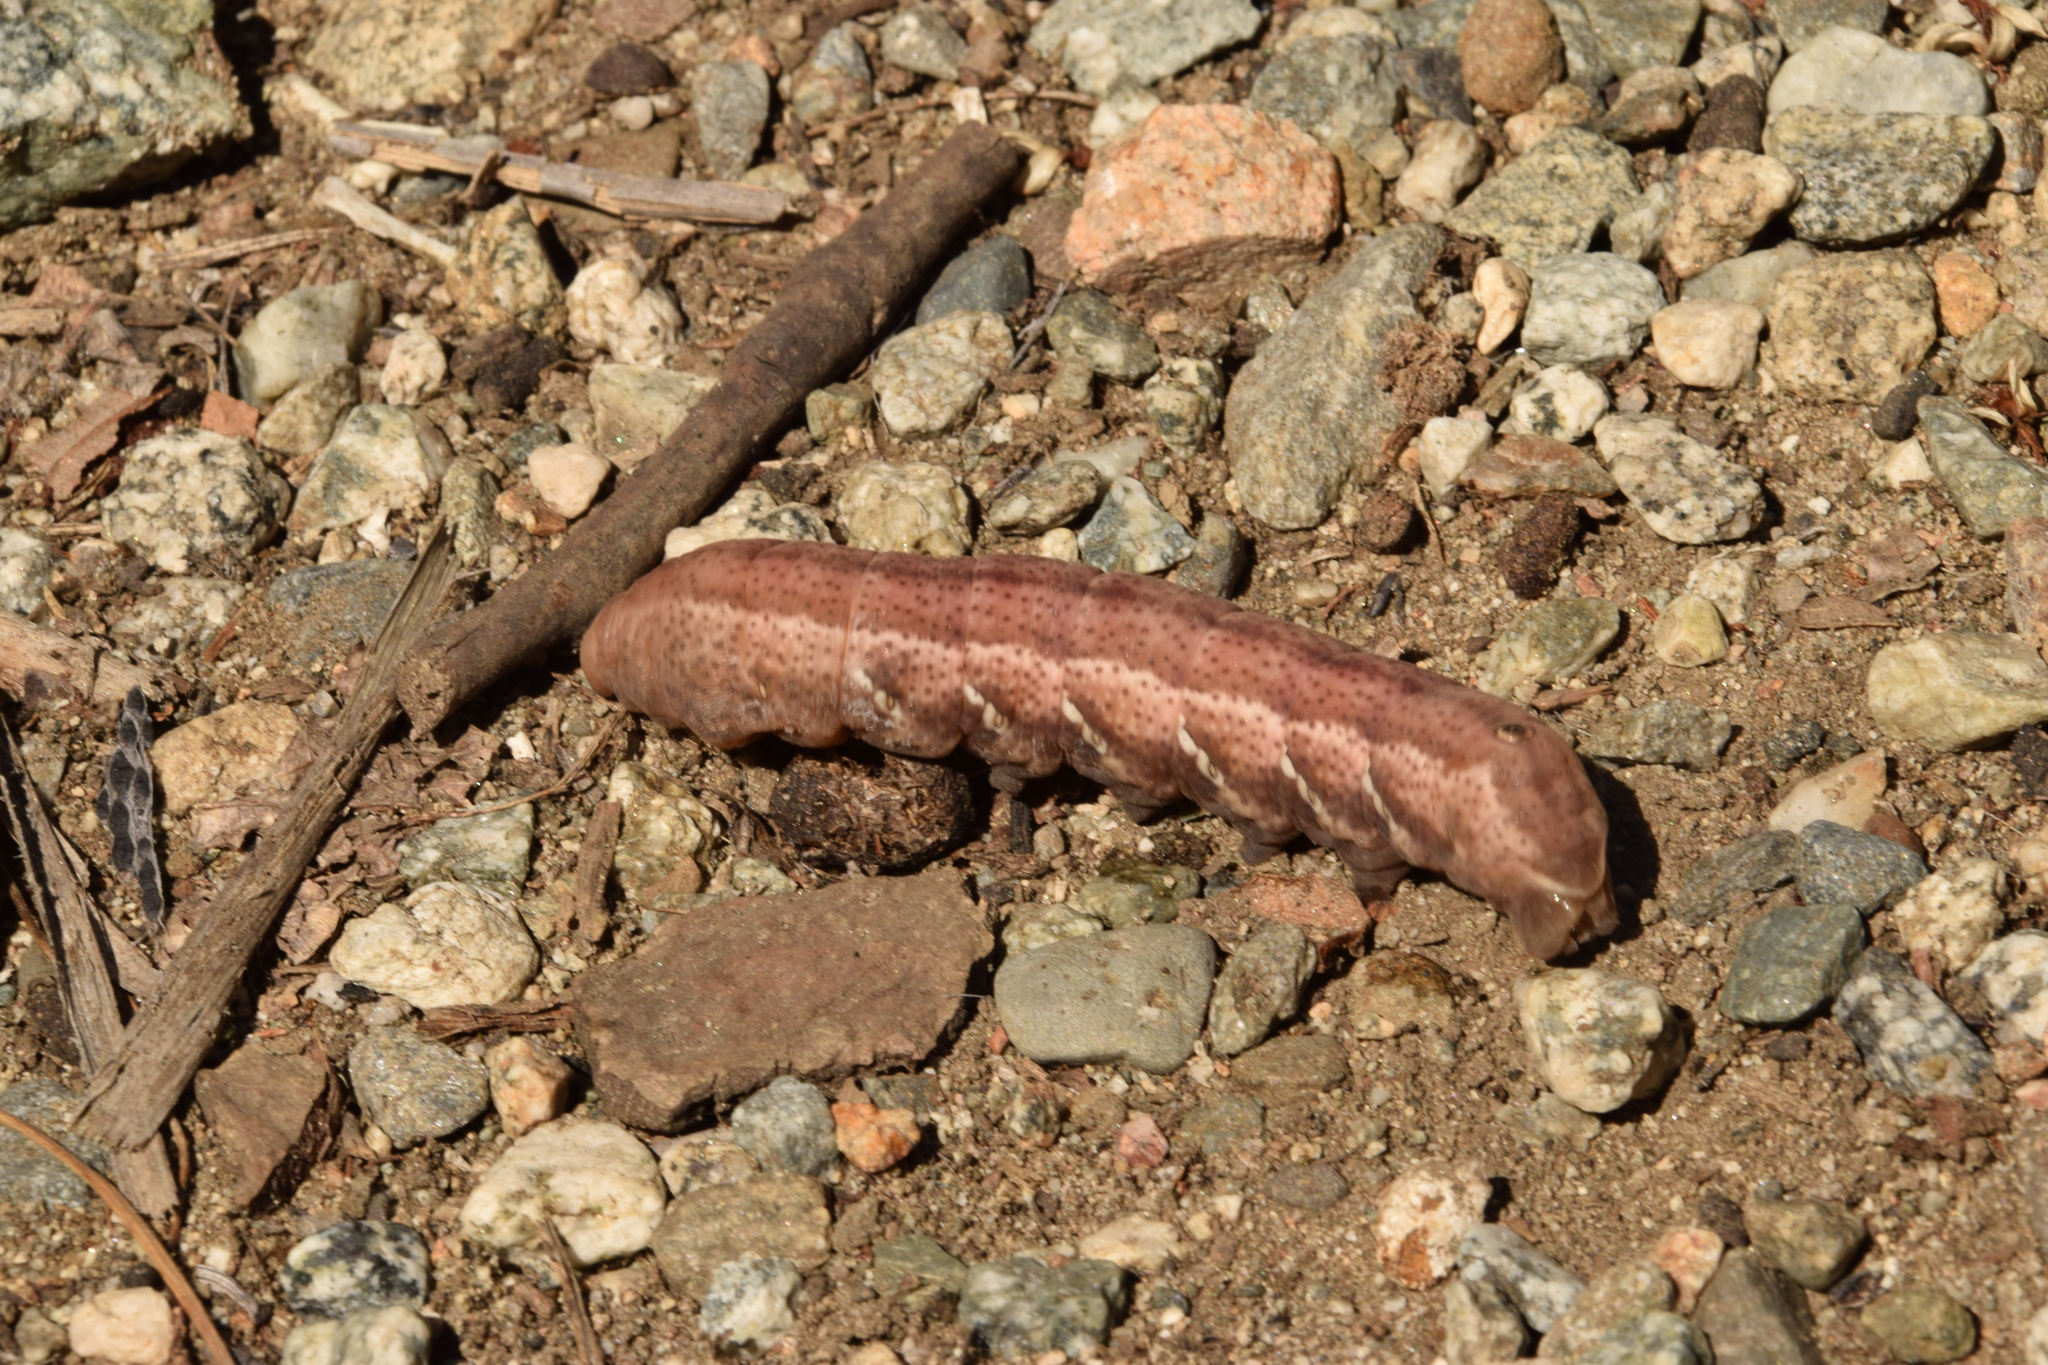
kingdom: Animalia
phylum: Arthropoda
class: Insecta
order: Lepidoptera
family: Sphingidae
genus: Eumorpha
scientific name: Eumorpha achemon
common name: Achemon sphinx
